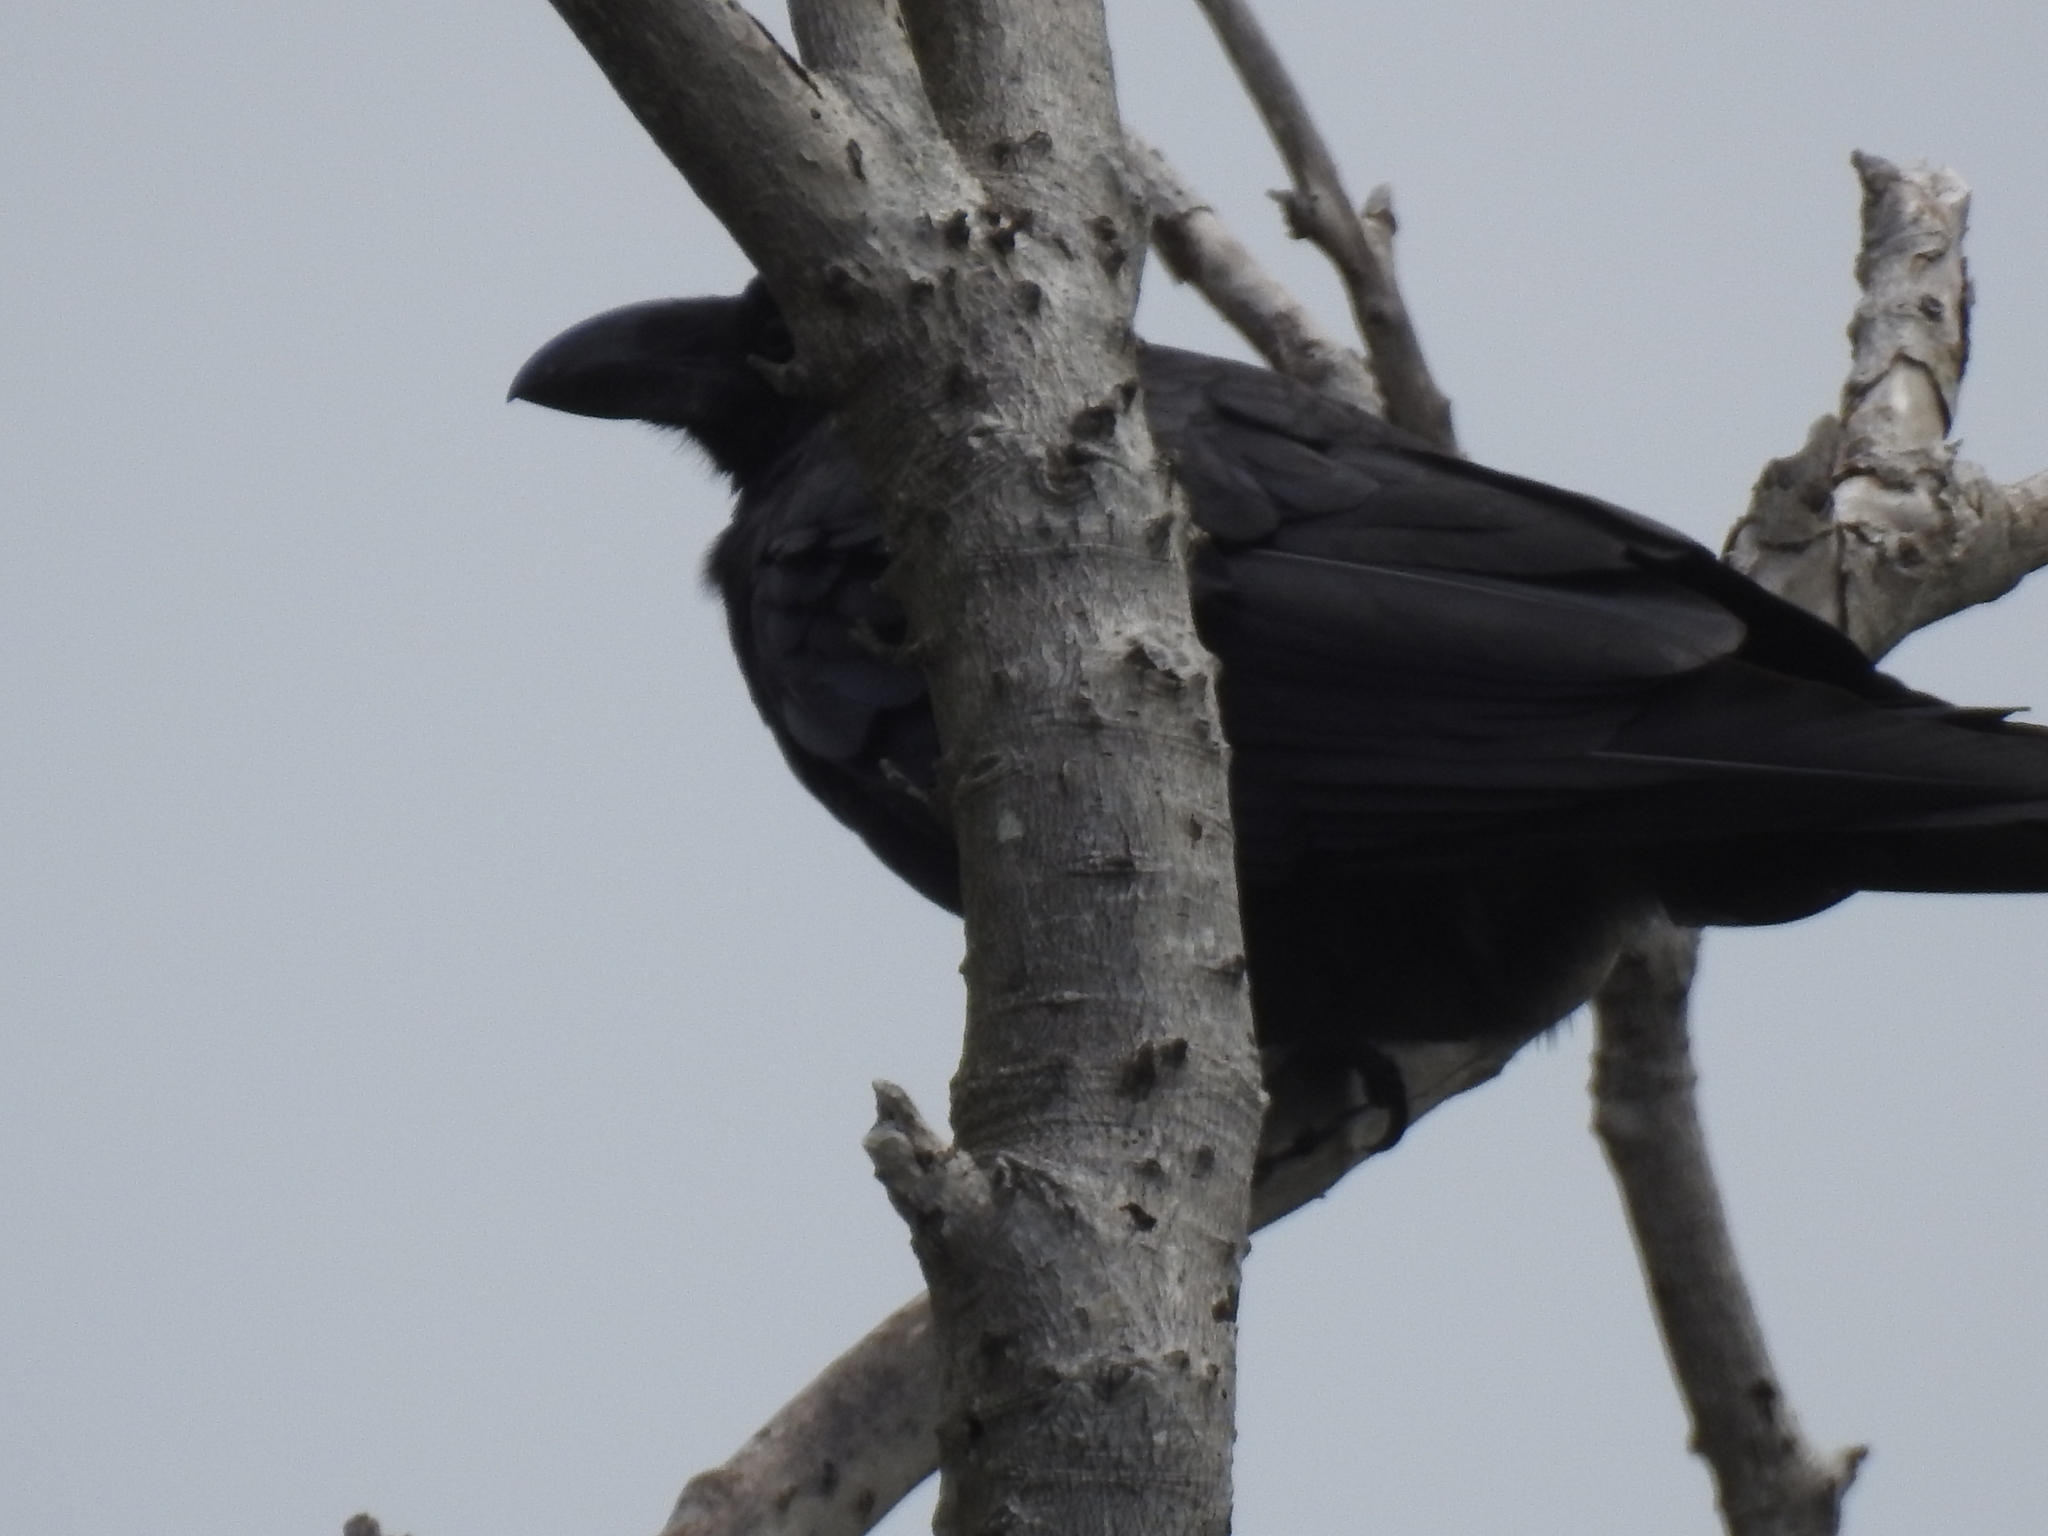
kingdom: Animalia
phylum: Chordata
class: Aves
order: Passeriformes
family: Corvidae
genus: Corvus
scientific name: Corvus macrorhynchos
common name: Large-billed crow
